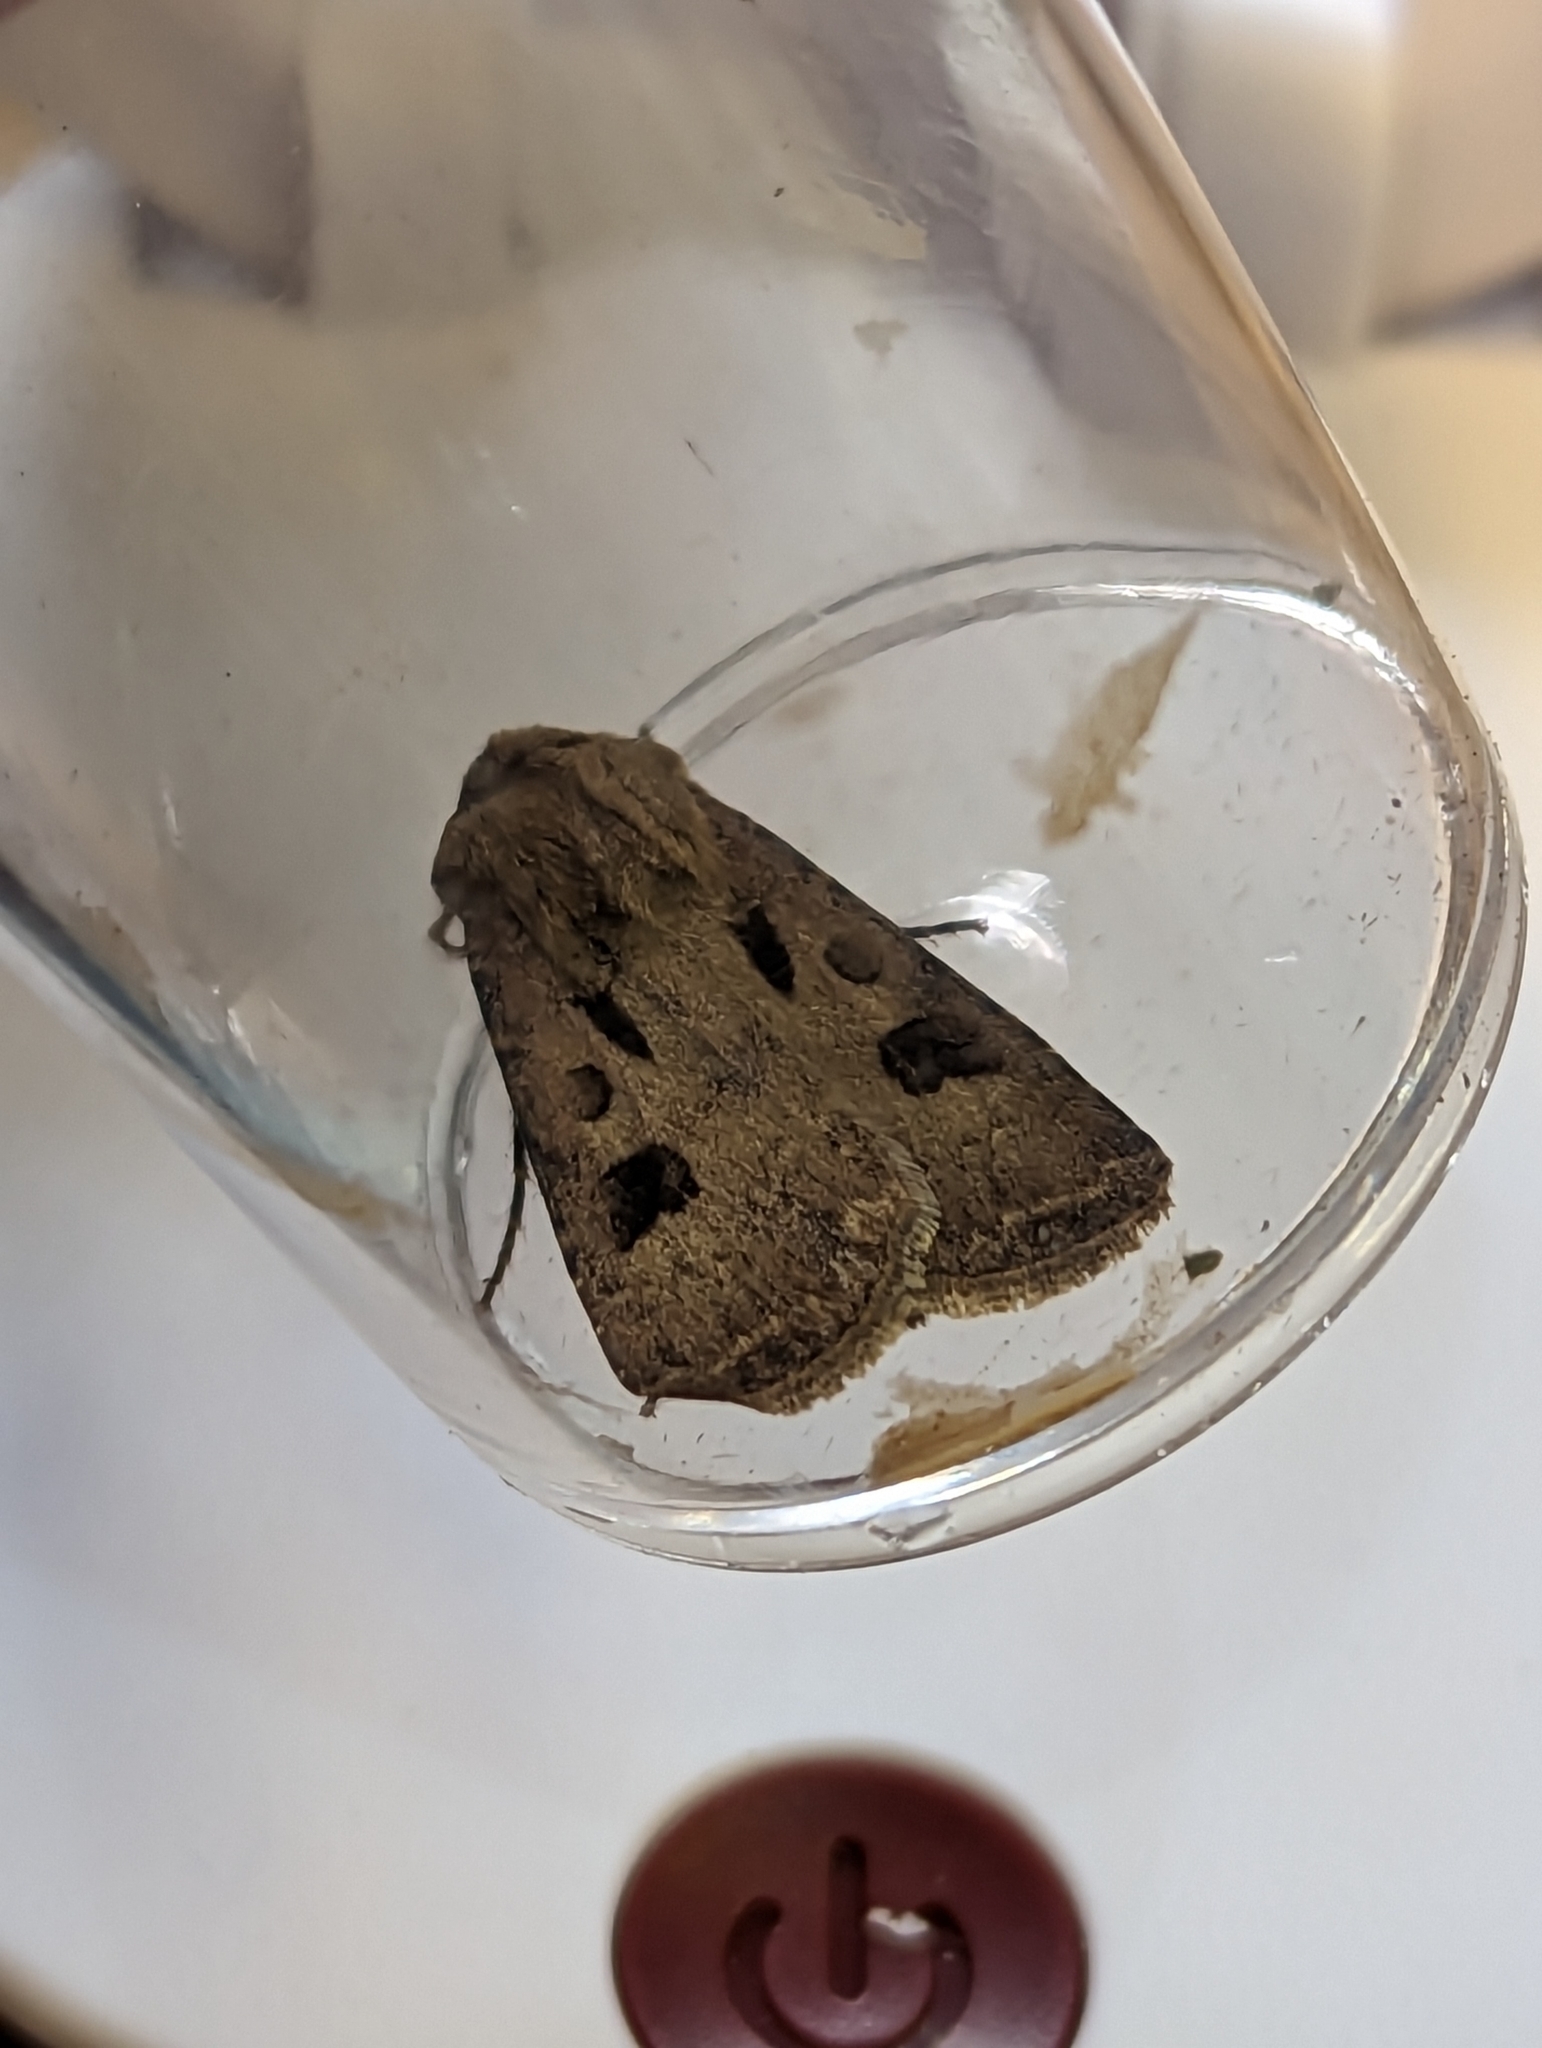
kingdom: Animalia
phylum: Arthropoda
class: Insecta
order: Lepidoptera
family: Noctuidae
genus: Agrotis
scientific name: Agrotis exclamationis
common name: Heart and dart
